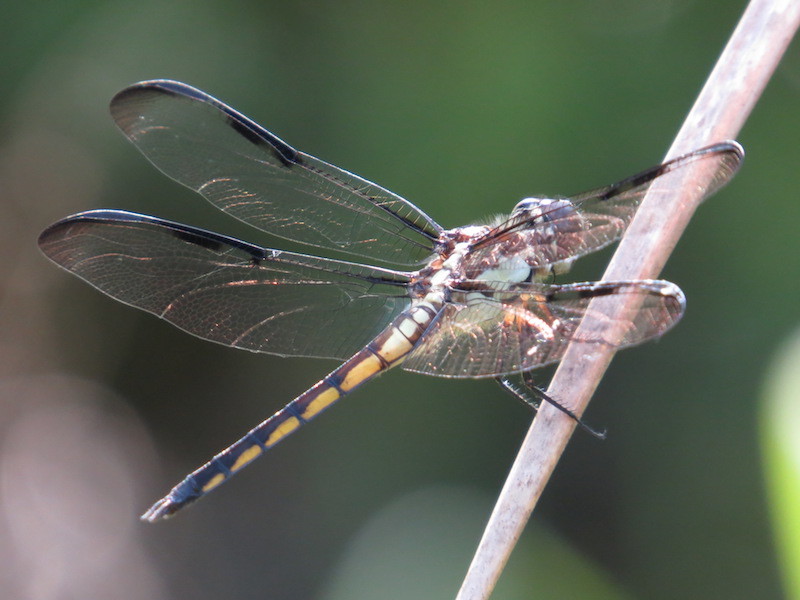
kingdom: Animalia
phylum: Arthropoda
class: Insecta
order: Odonata
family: Libellulidae
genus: Libellula
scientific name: Libellula axilena
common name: Bar-winged skimmer
